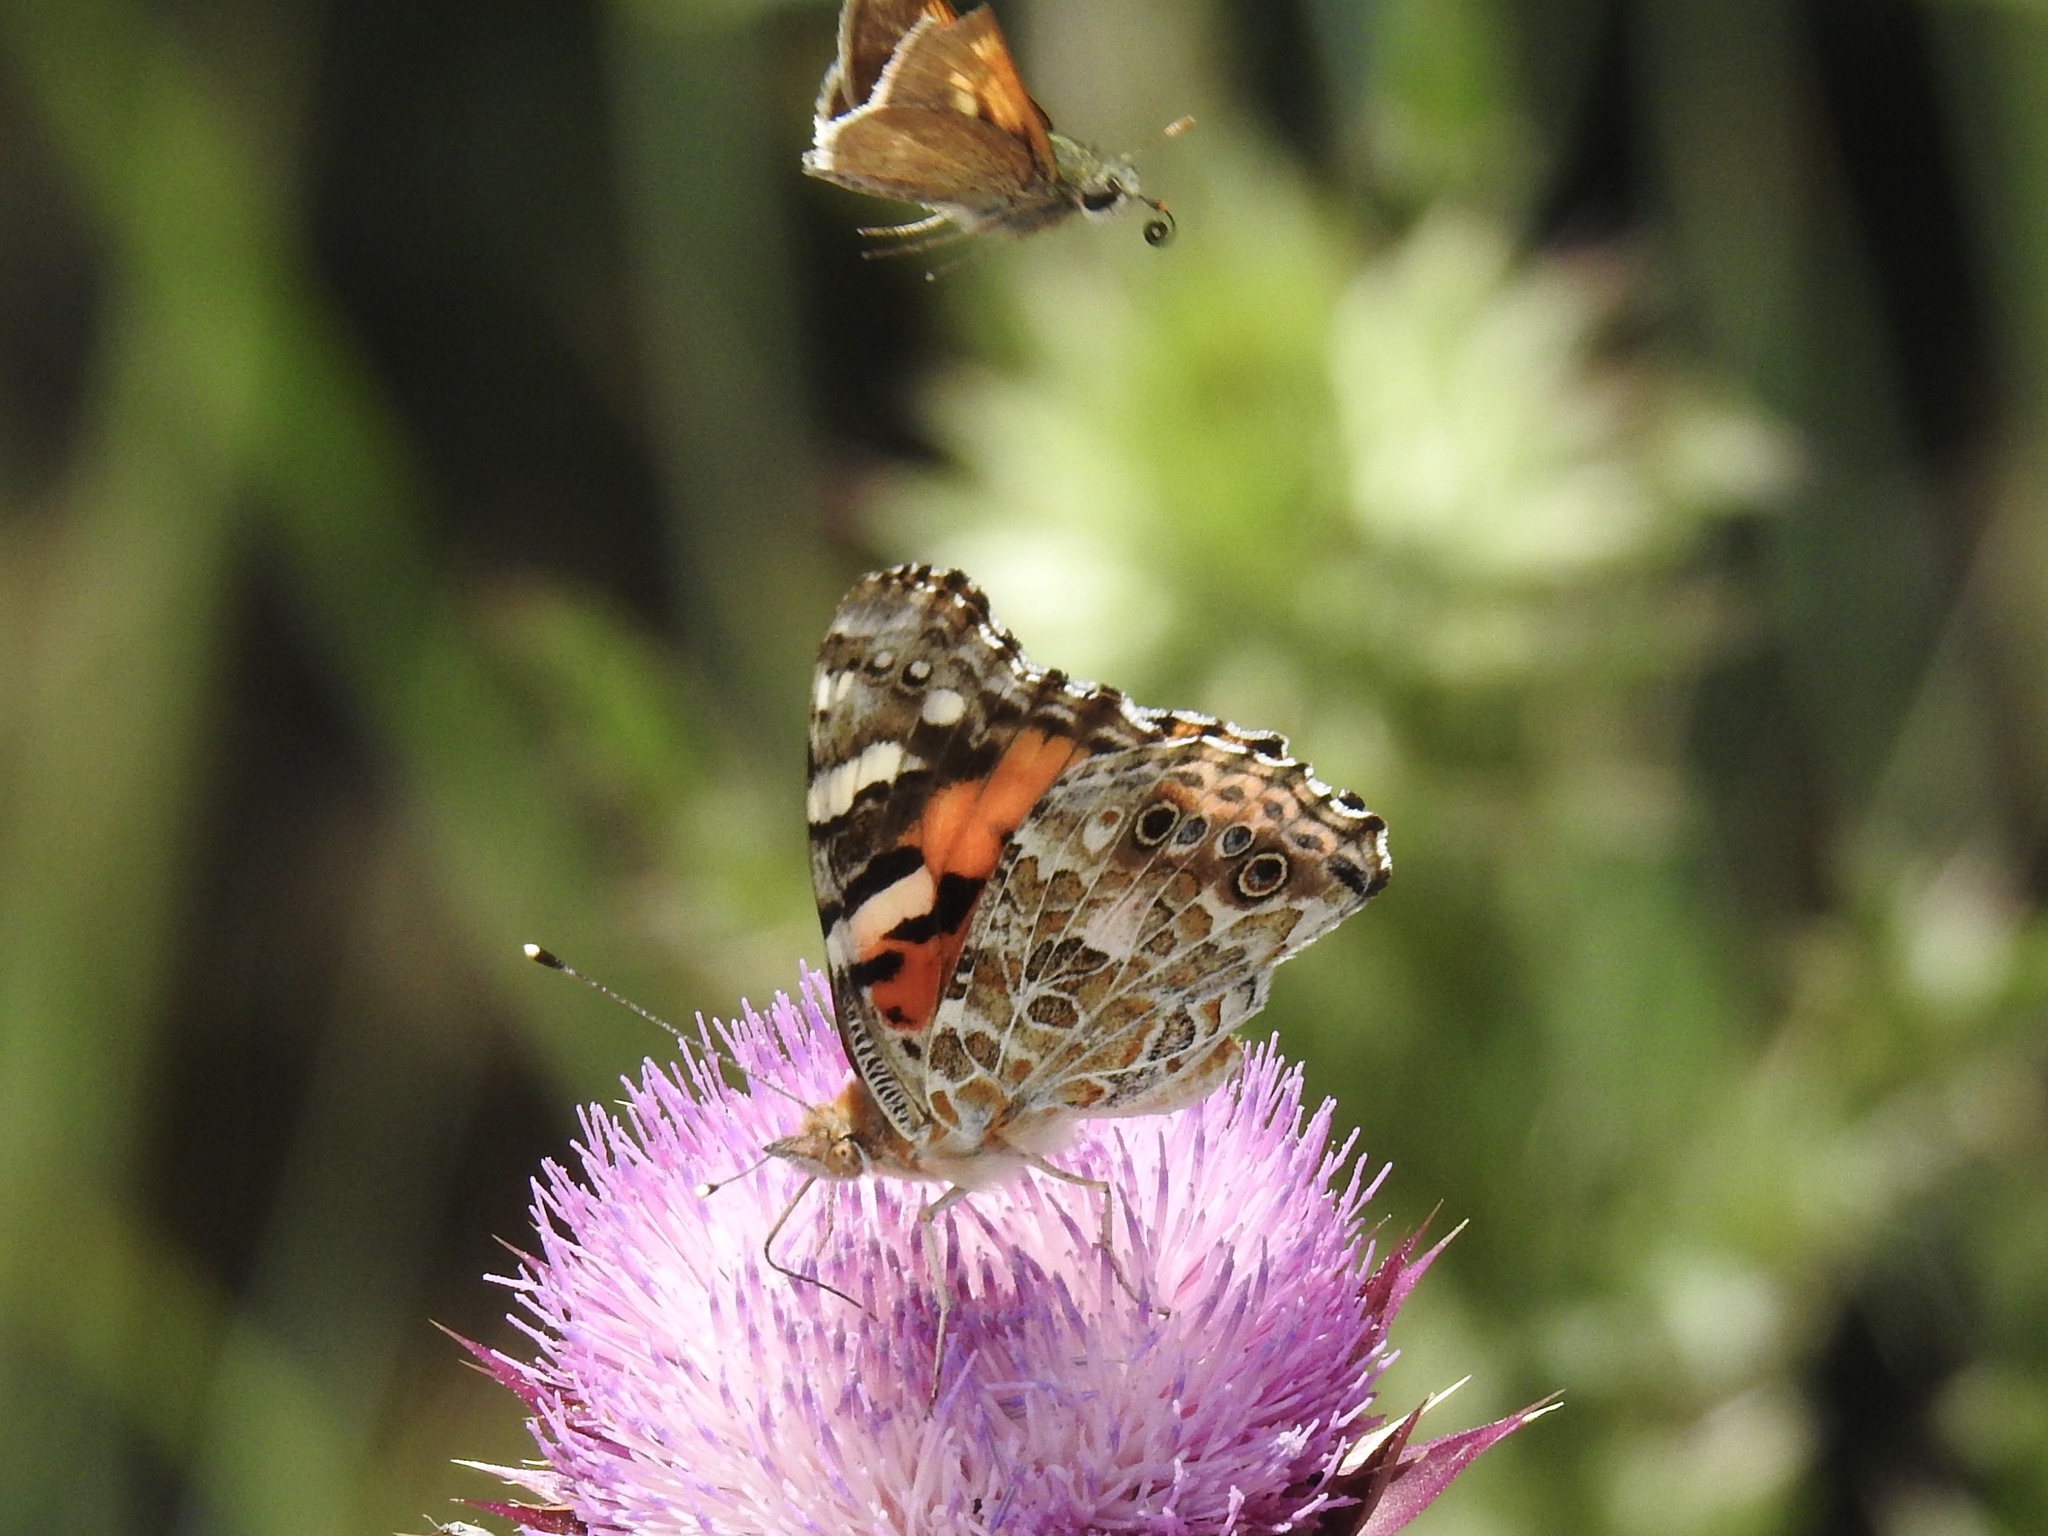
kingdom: Animalia
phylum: Arthropoda
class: Insecta
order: Lepidoptera
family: Nymphalidae
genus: Vanessa
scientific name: Vanessa cardui
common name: Painted lady
